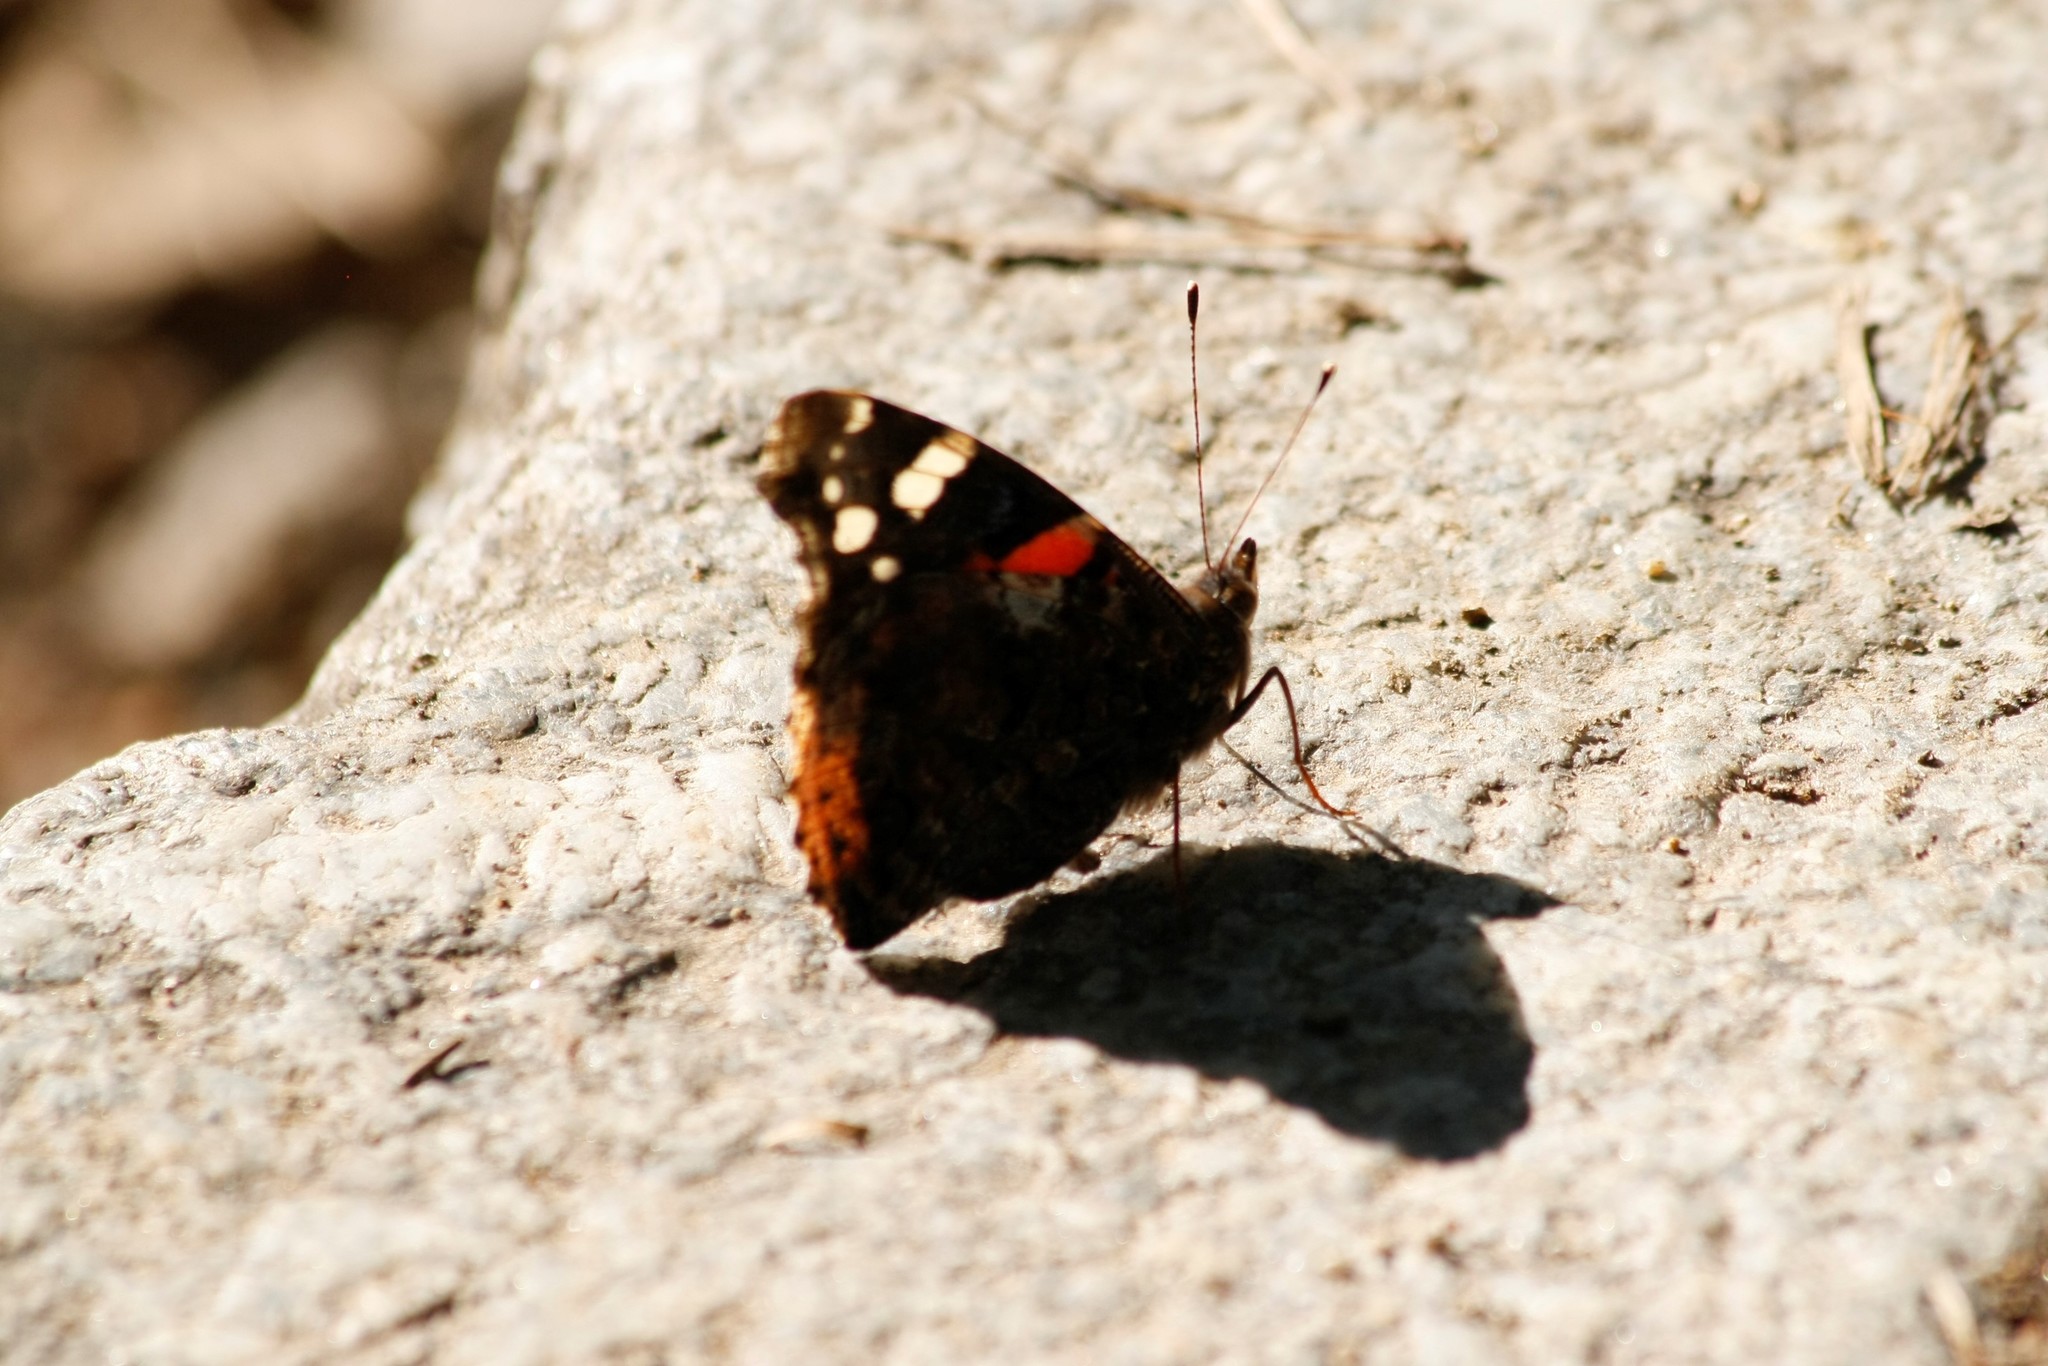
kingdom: Animalia
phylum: Arthropoda
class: Insecta
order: Lepidoptera
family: Nymphalidae
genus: Vanessa
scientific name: Vanessa atalanta
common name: Red admiral
